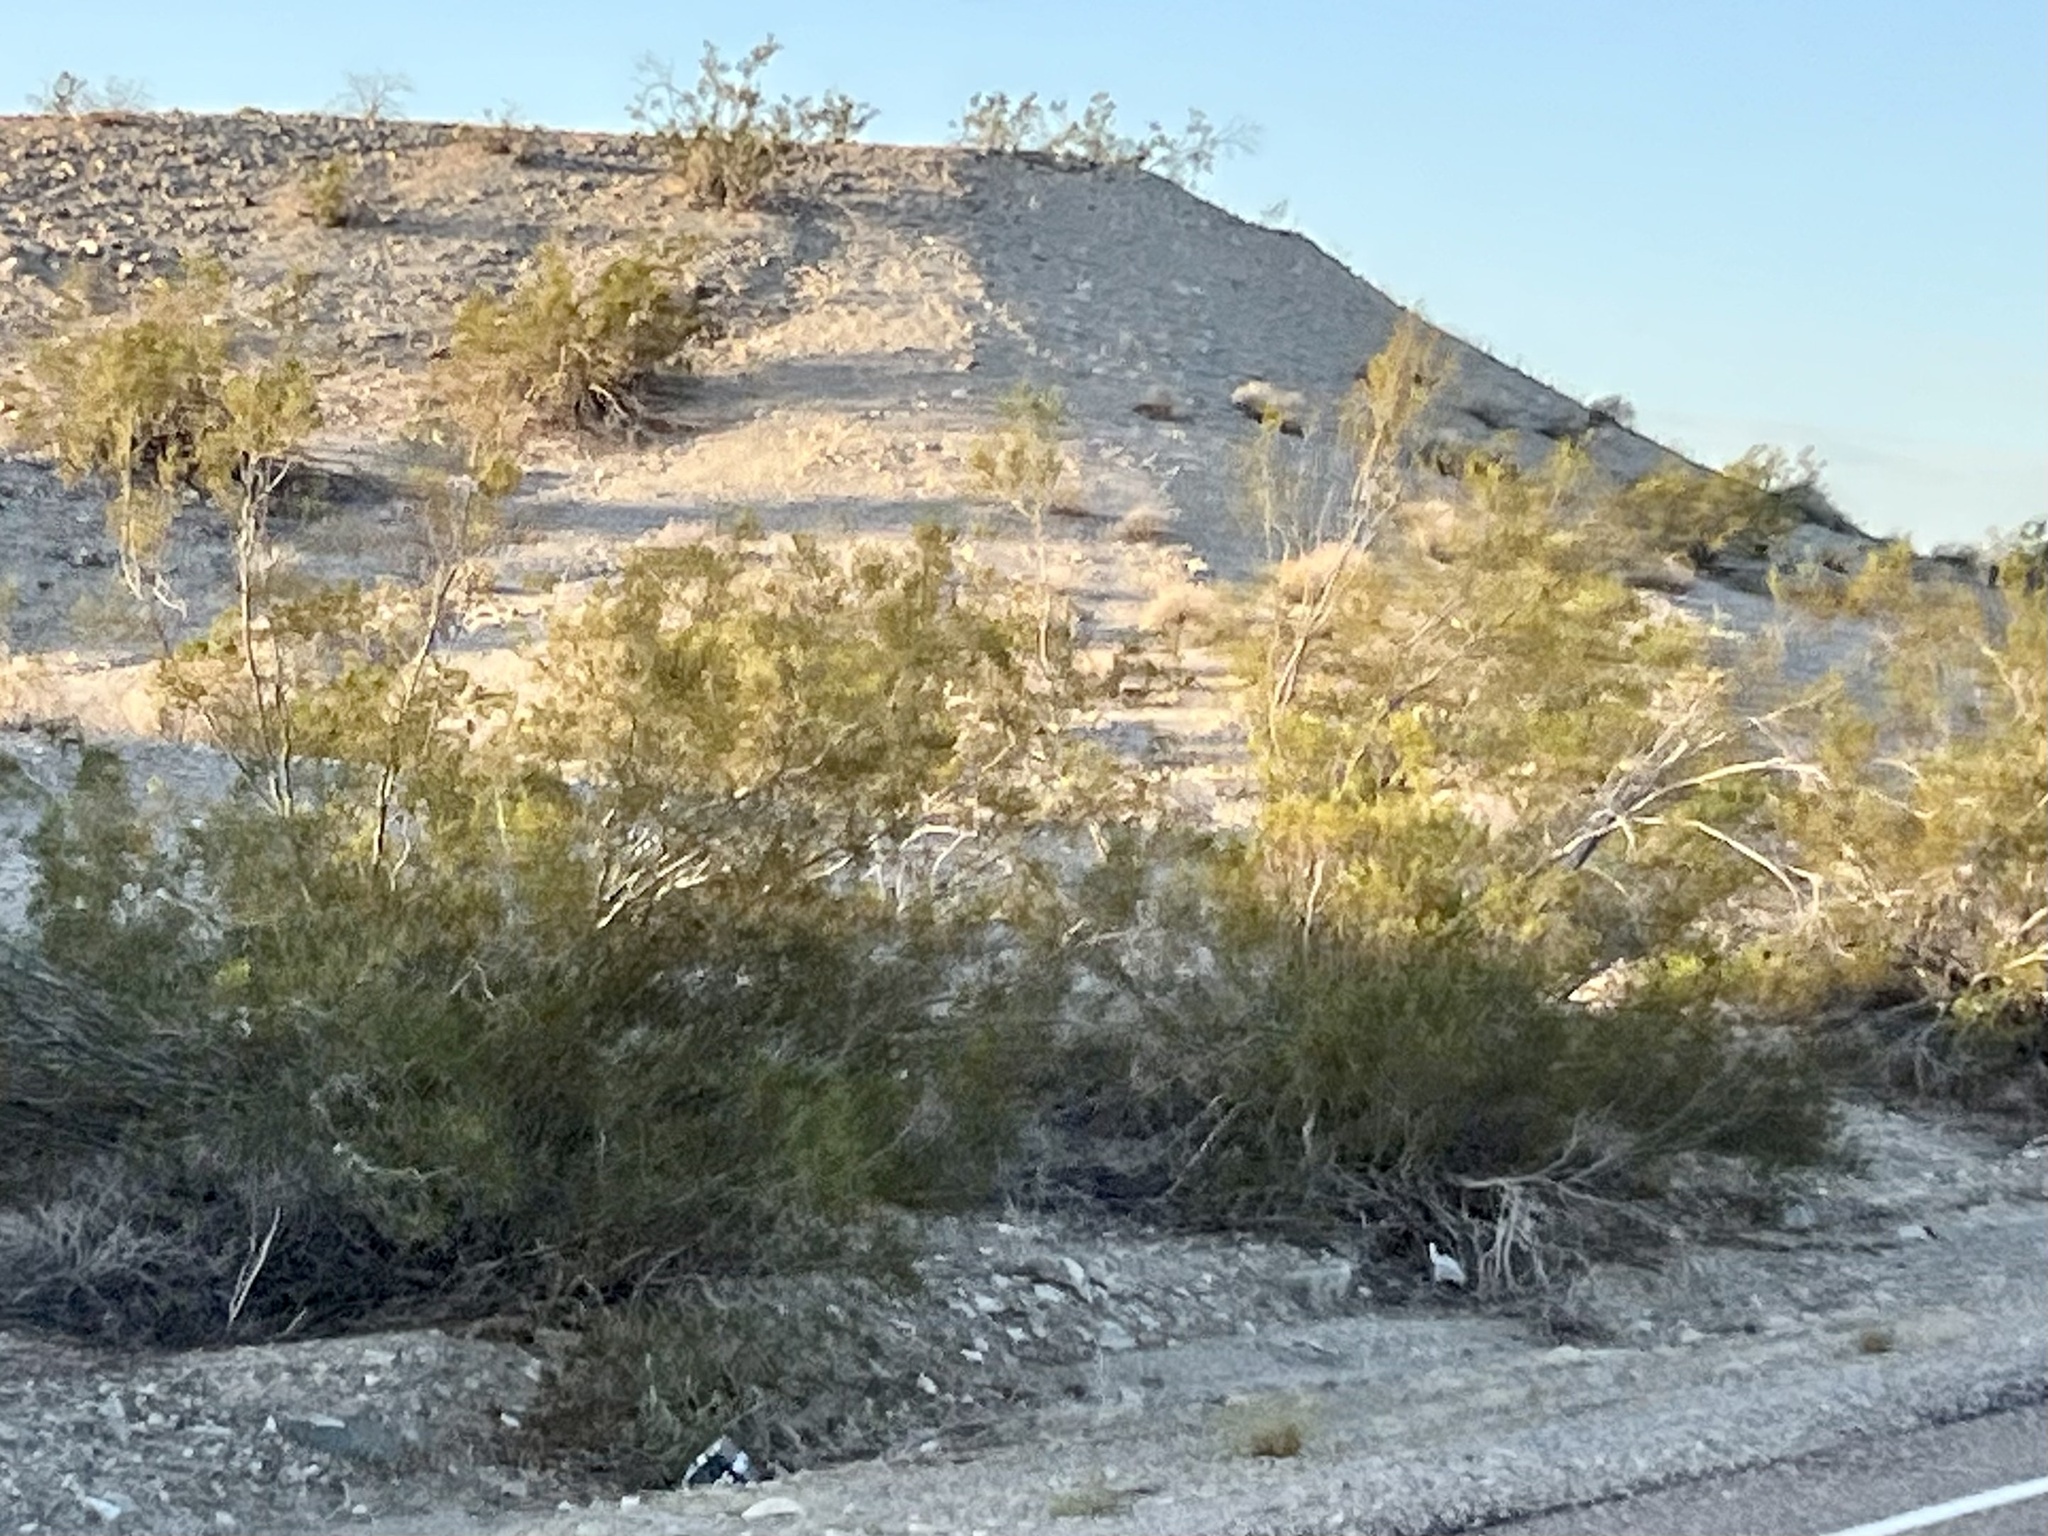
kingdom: Plantae
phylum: Tracheophyta
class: Magnoliopsida
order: Zygophyllales
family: Zygophyllaceae
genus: Larrea
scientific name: Larrea tridentata
